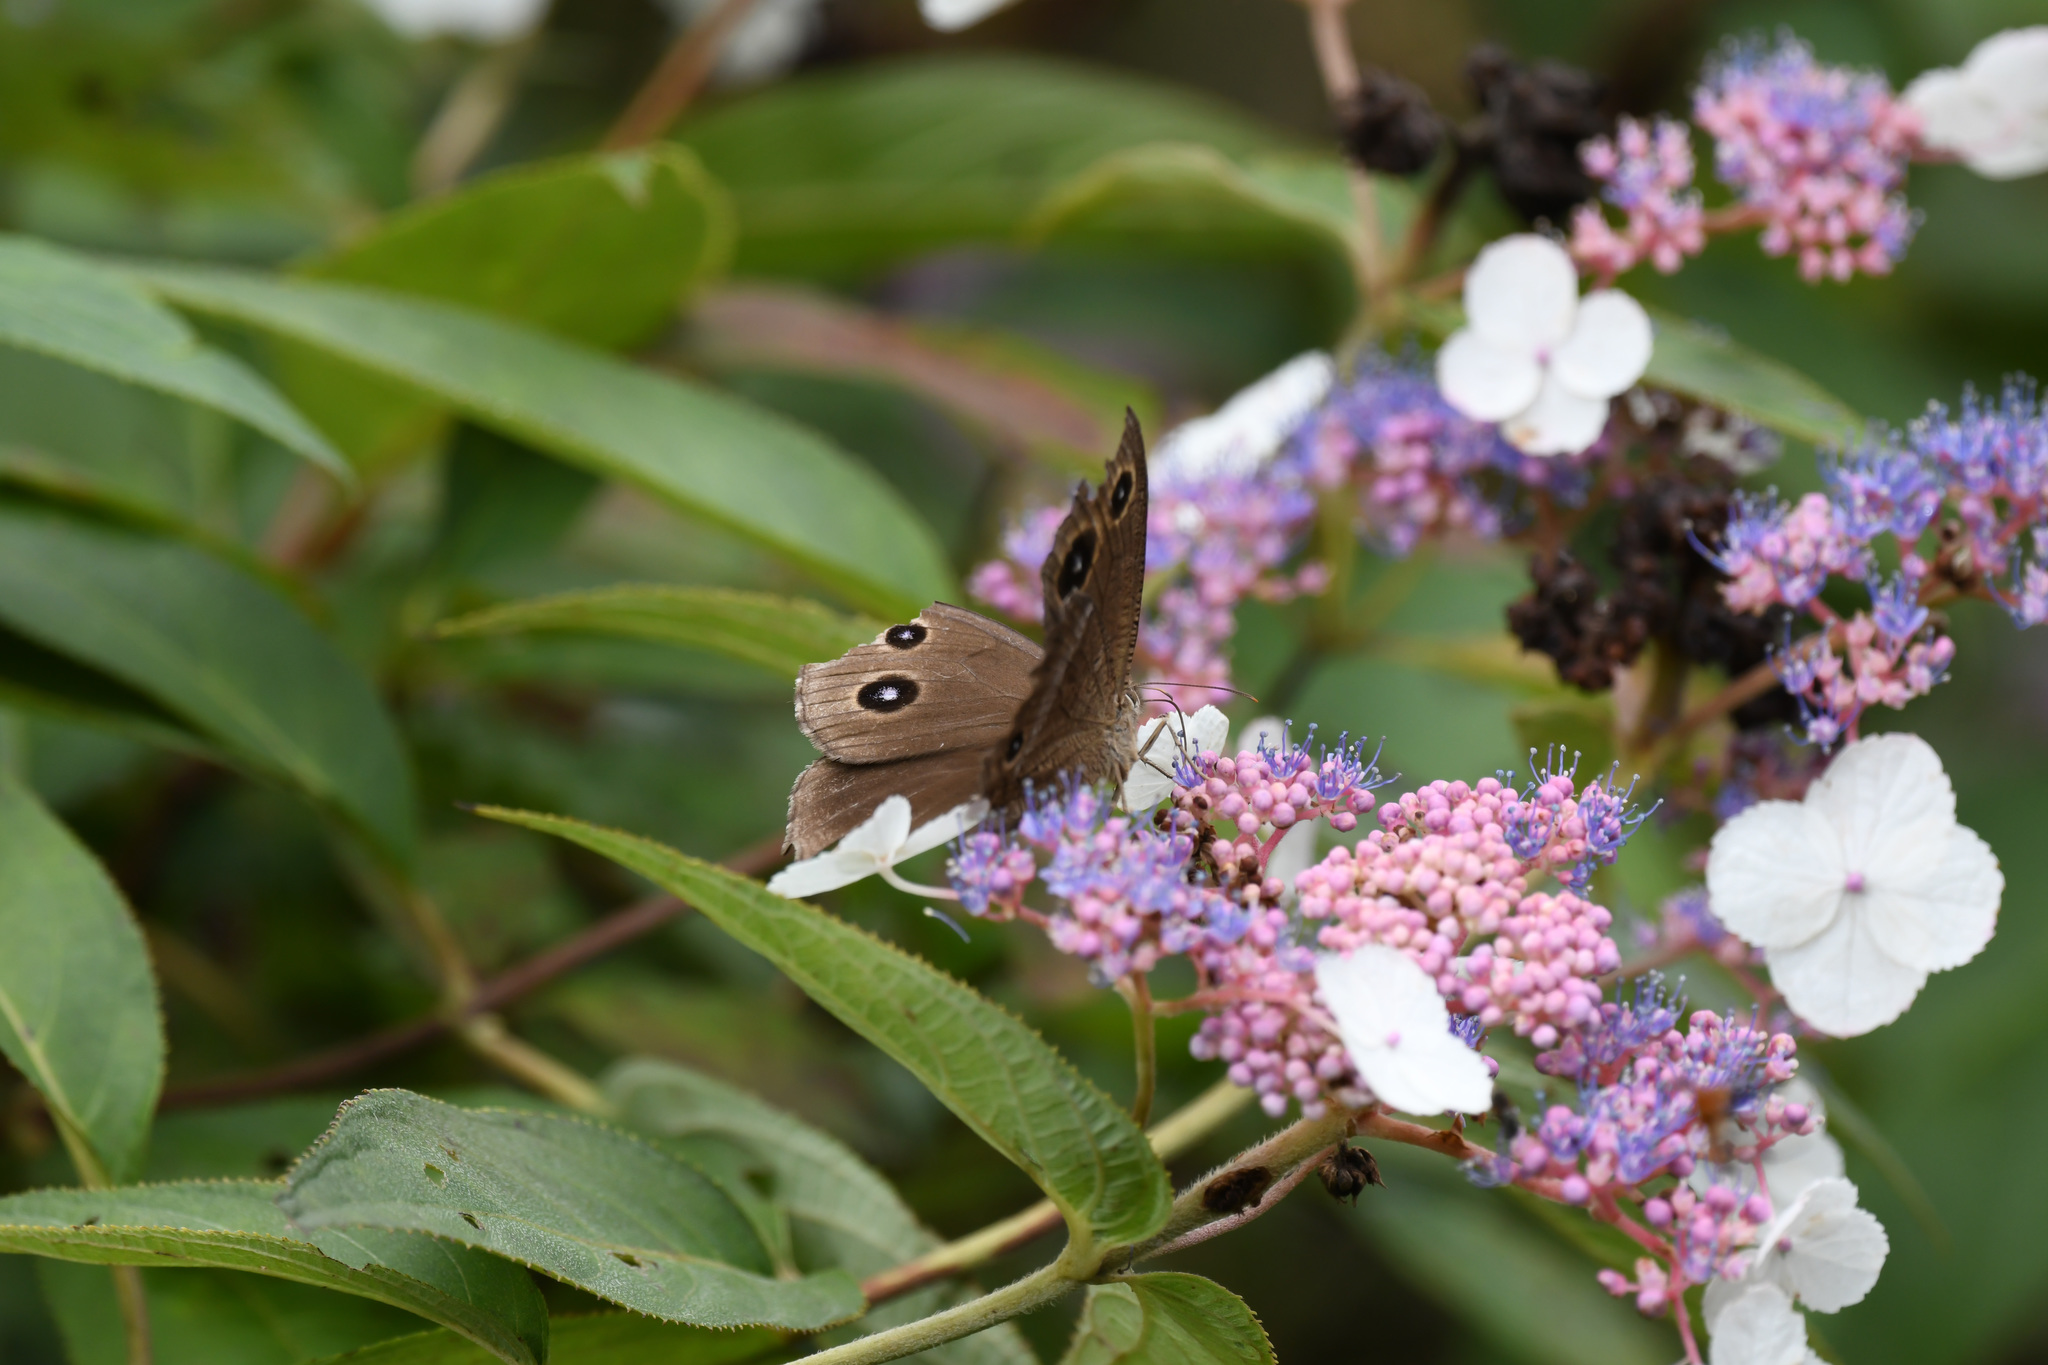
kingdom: Animalia
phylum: Arthropoda
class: Insecta
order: Lepidoptera
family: Nymphalidae
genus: Minois
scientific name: Minois dryas
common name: Dryad
